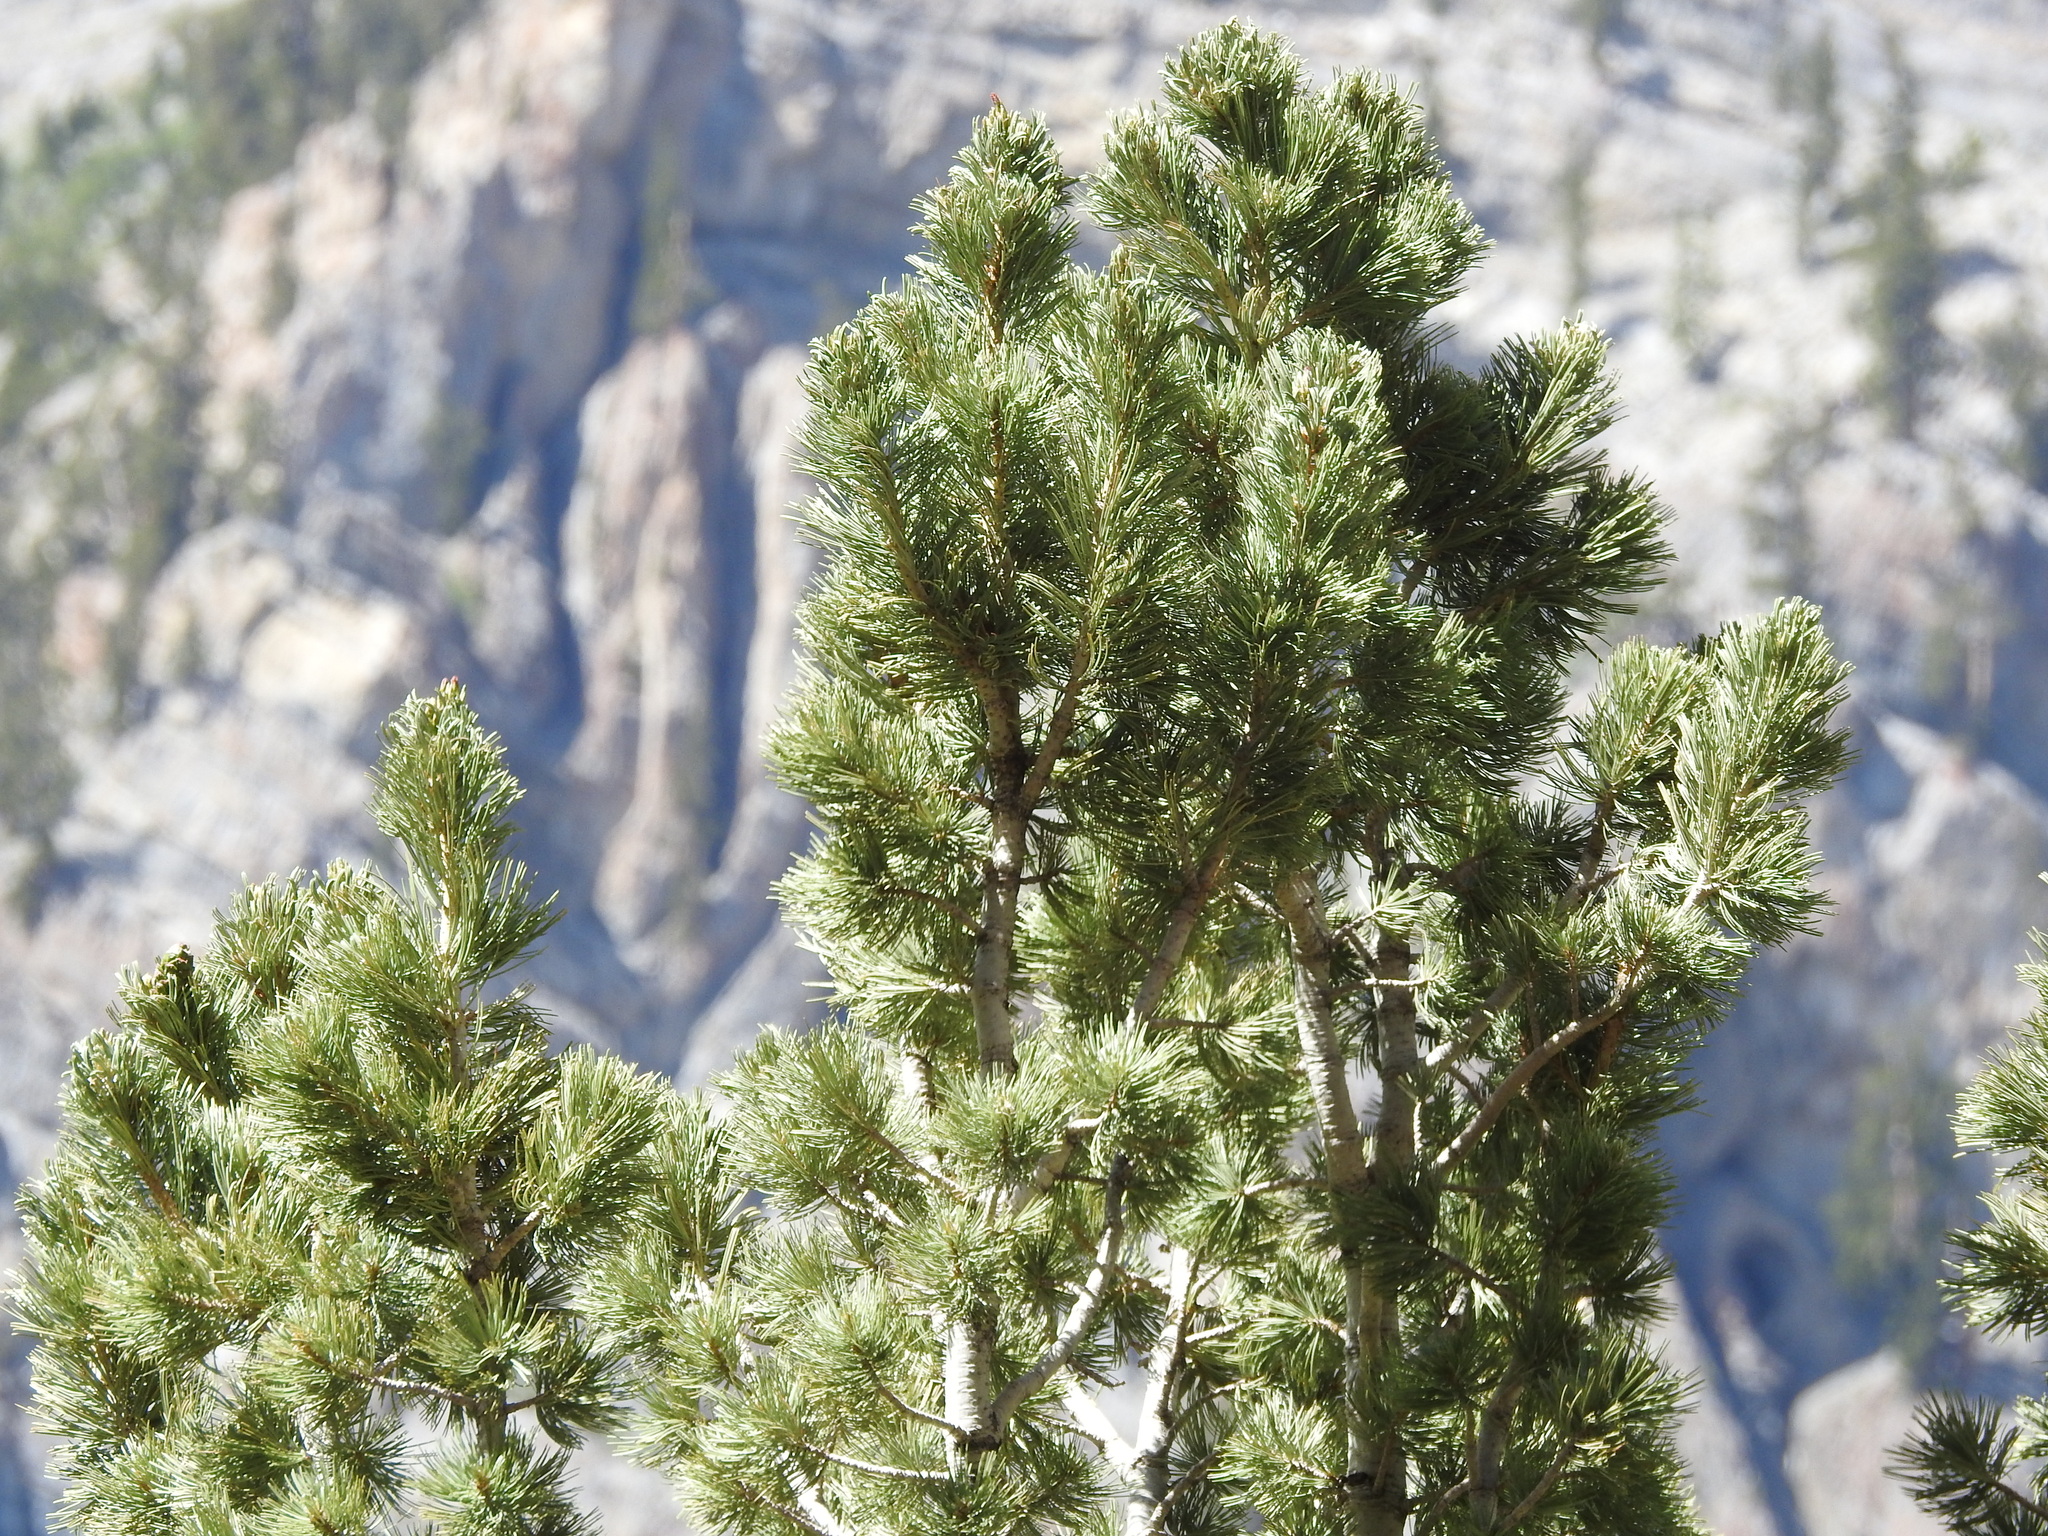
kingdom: Plantae
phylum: Tracheophyta
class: Pinopsida
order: Pinales
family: Pinaceae
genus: Pinus
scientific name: Pinus flexilis
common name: Limber pine
